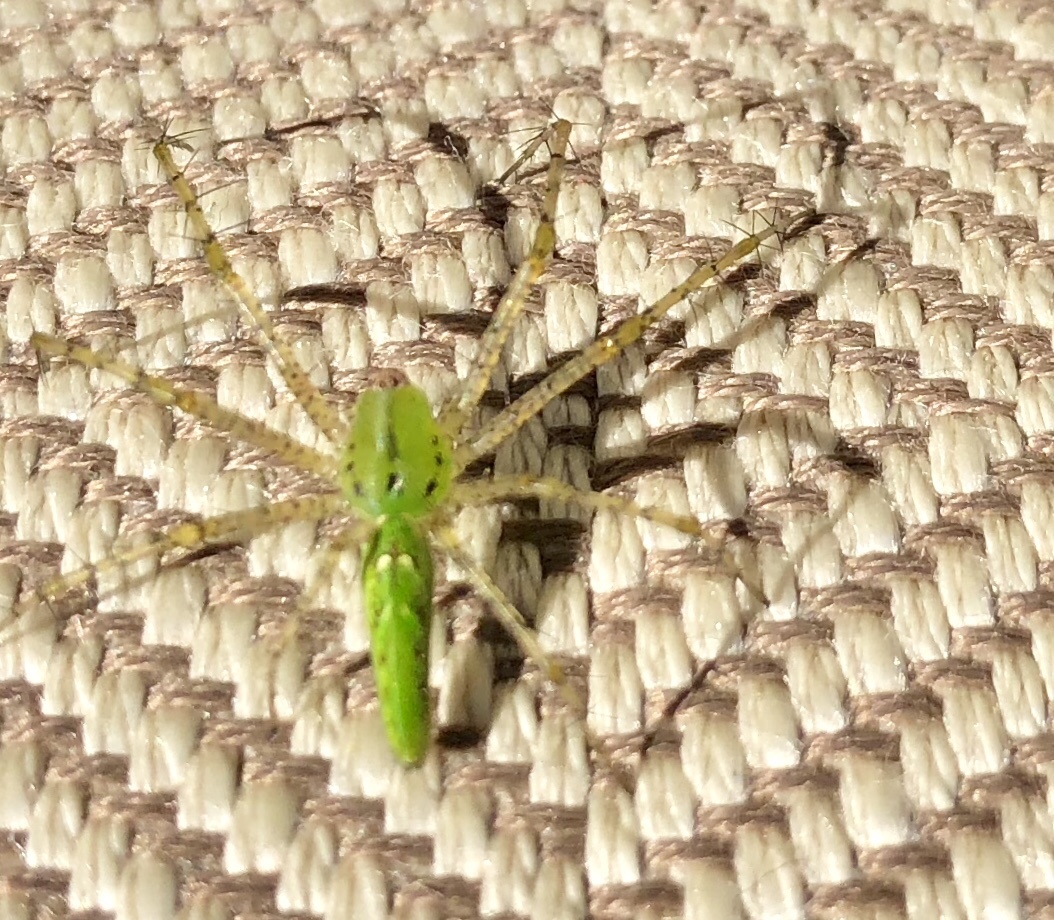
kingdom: Animalia
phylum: Arthropoda
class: Arachnida
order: Araneae
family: Oxyopidae
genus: Peucetia
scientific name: Peucetia viridans
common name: Lynx spiders
